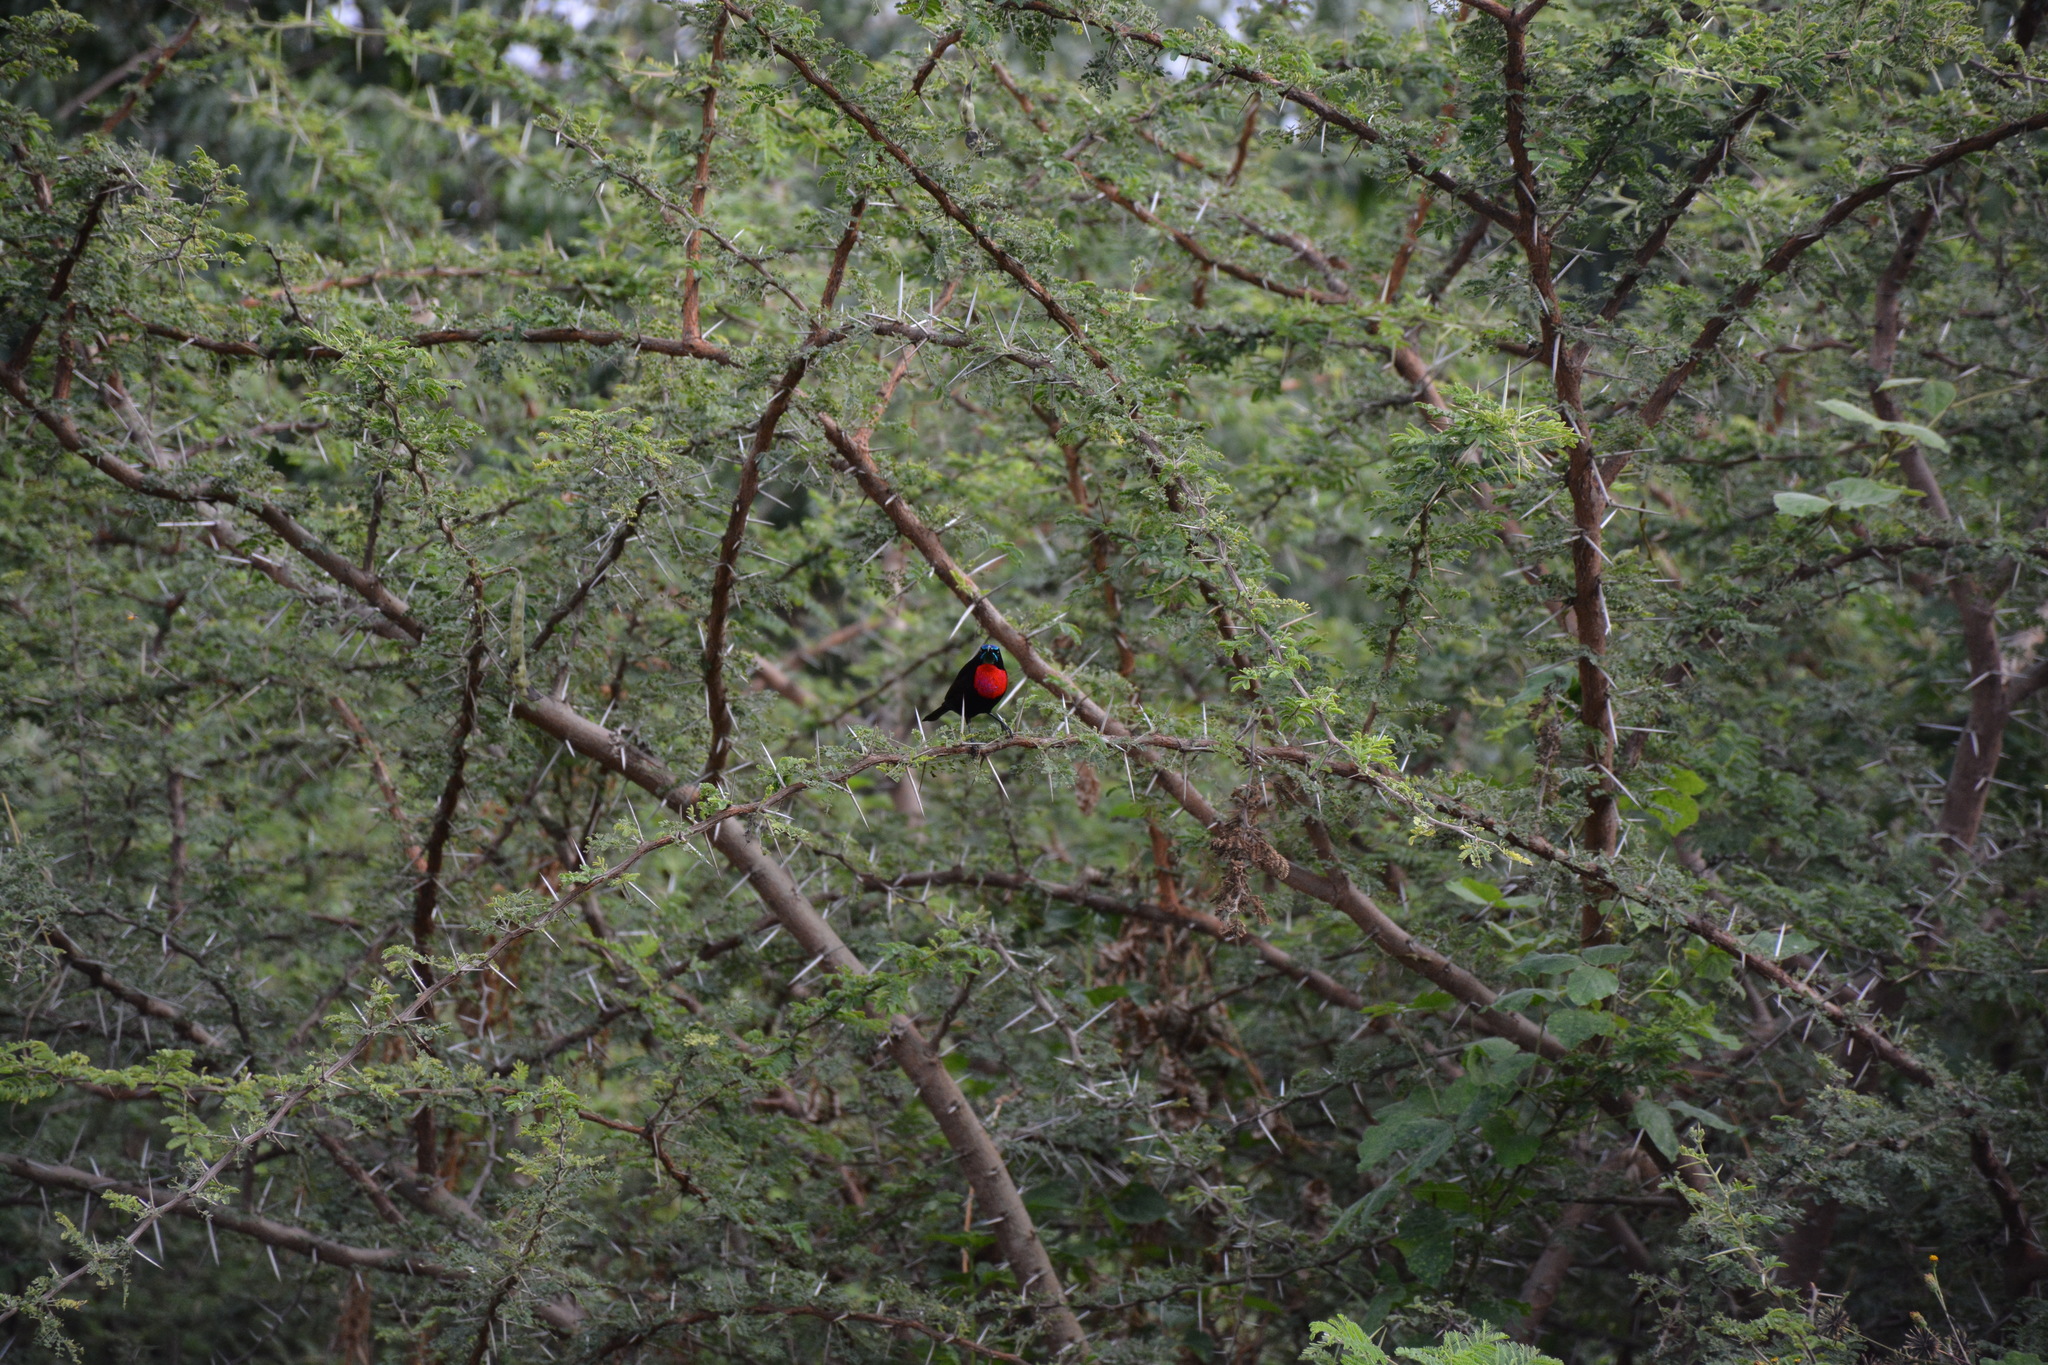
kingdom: Animalia
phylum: Chordata
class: Aves
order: Passeriformes
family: Nectariniidae
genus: Chalcomitra
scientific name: Chalcomitra senegalensis
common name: Scarlet-chested sunbird
